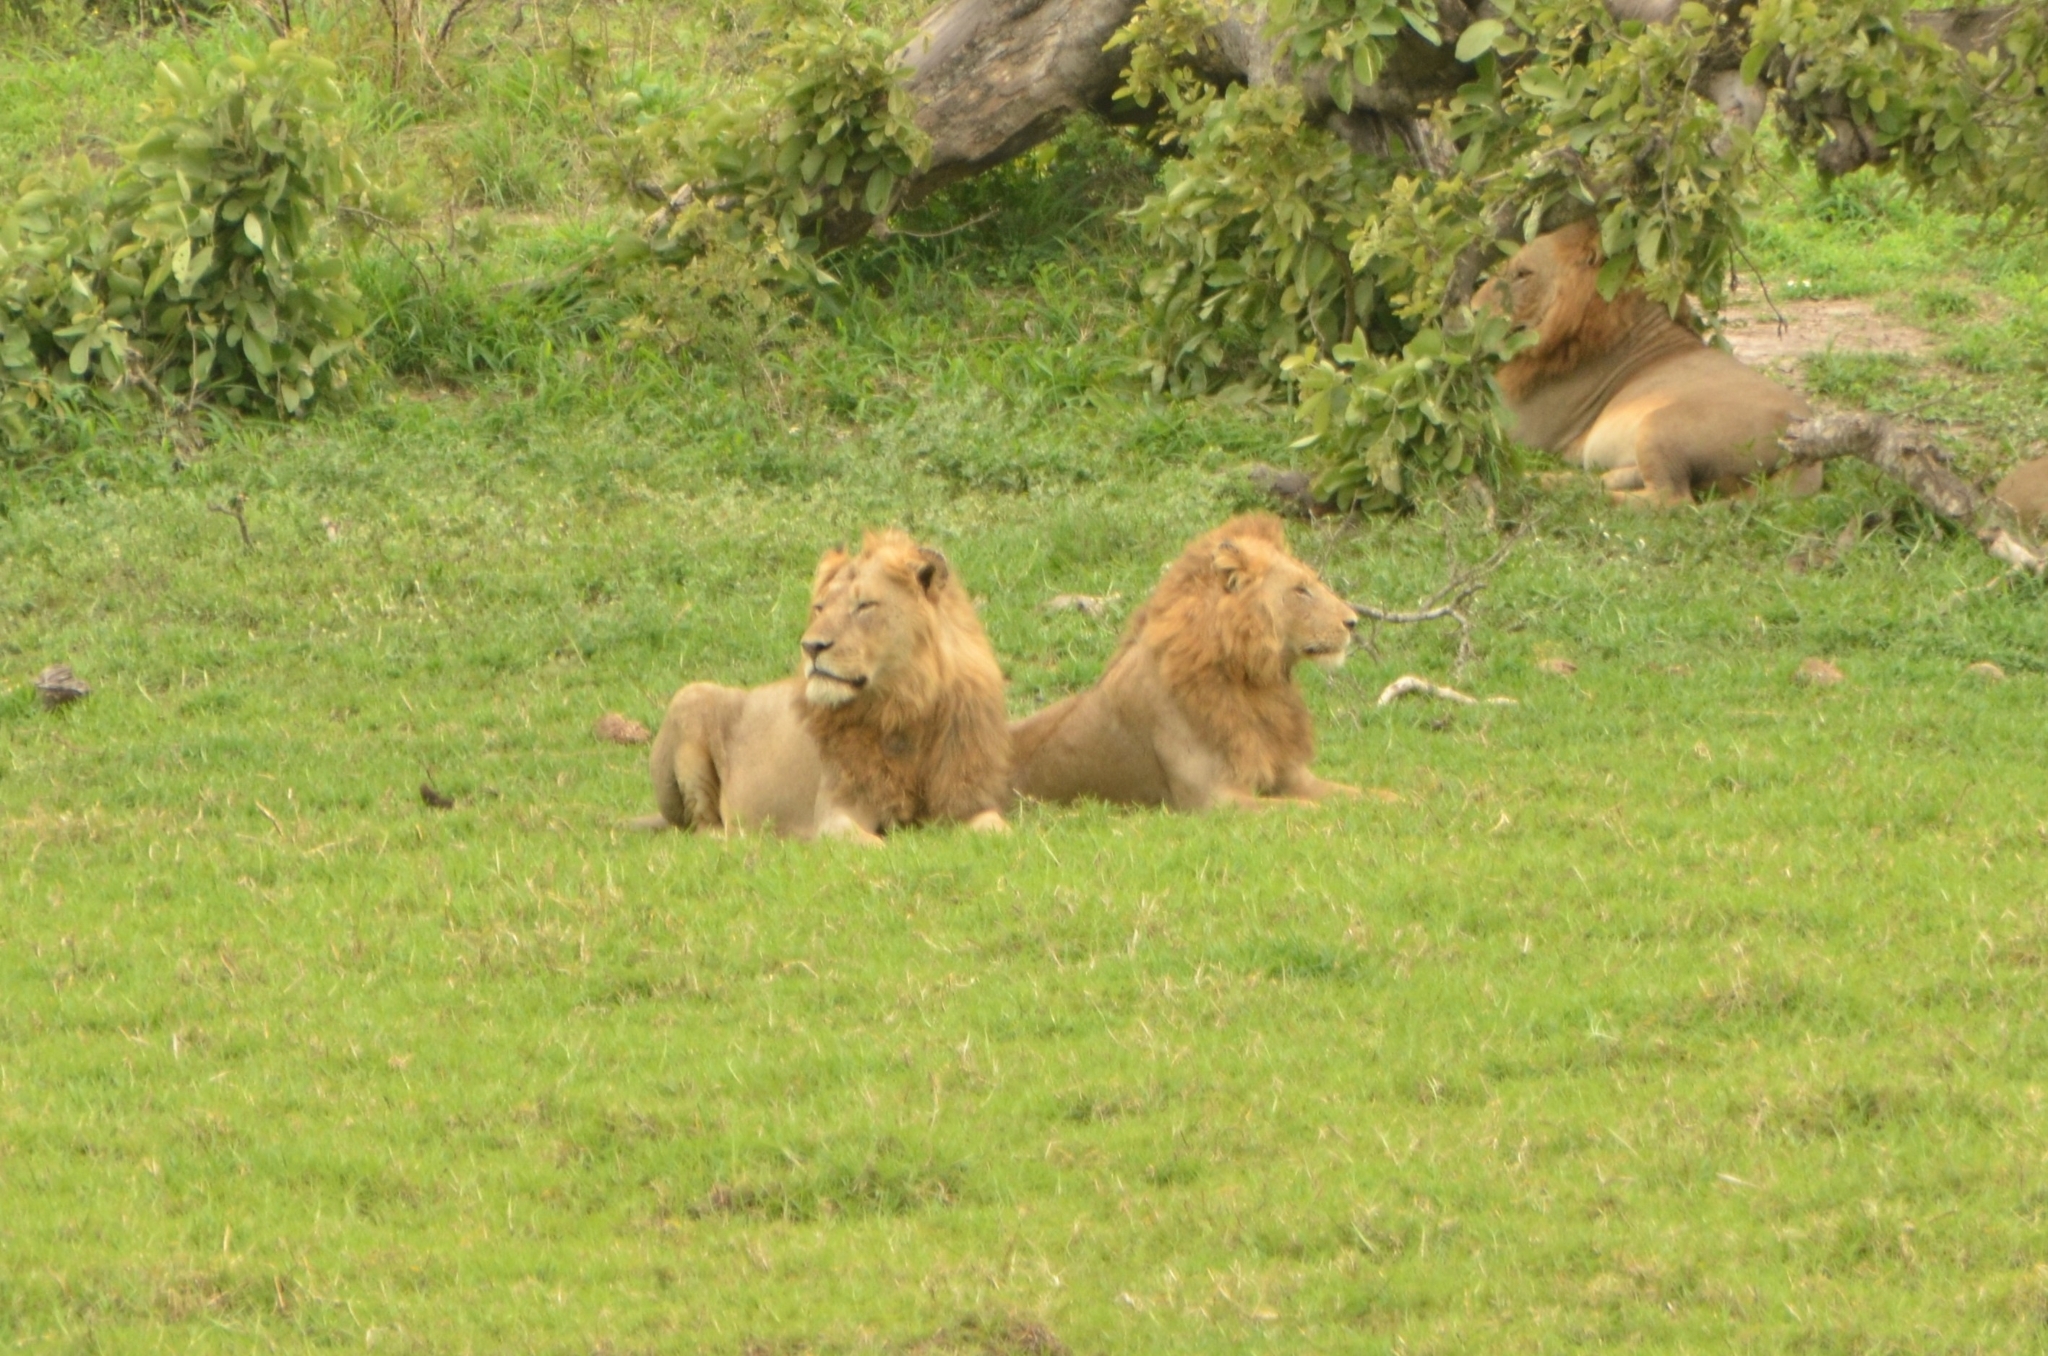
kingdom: Animalia
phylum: Chordata
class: Mammalia
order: Carnivora
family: Felidae
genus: Panthera
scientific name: Panthera leo
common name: Lion
